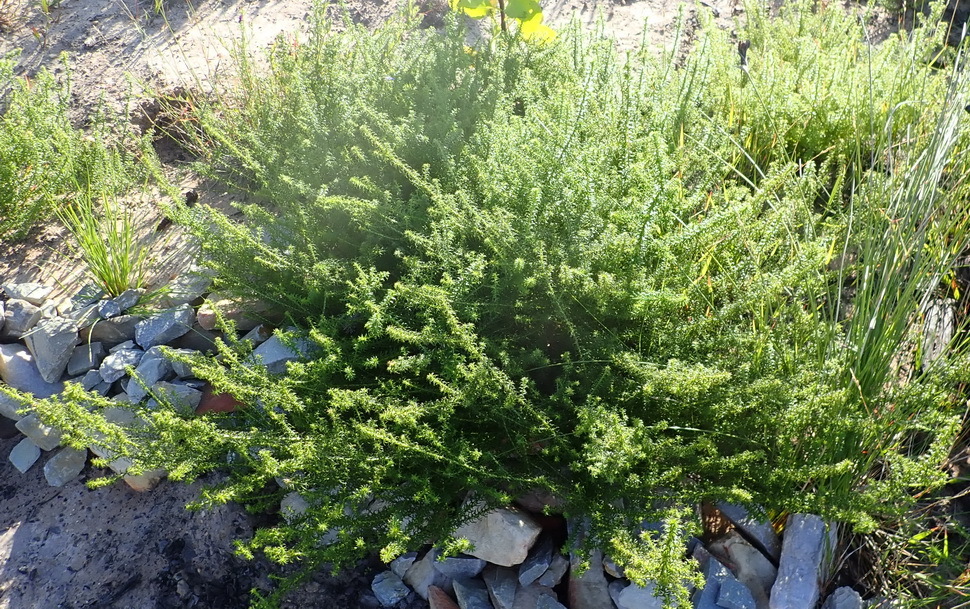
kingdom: Plantae
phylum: Tracheophyta
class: Magnoliopsida
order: Asterales
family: Asteraceae
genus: Cullumia
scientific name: Cullumia decurrens
